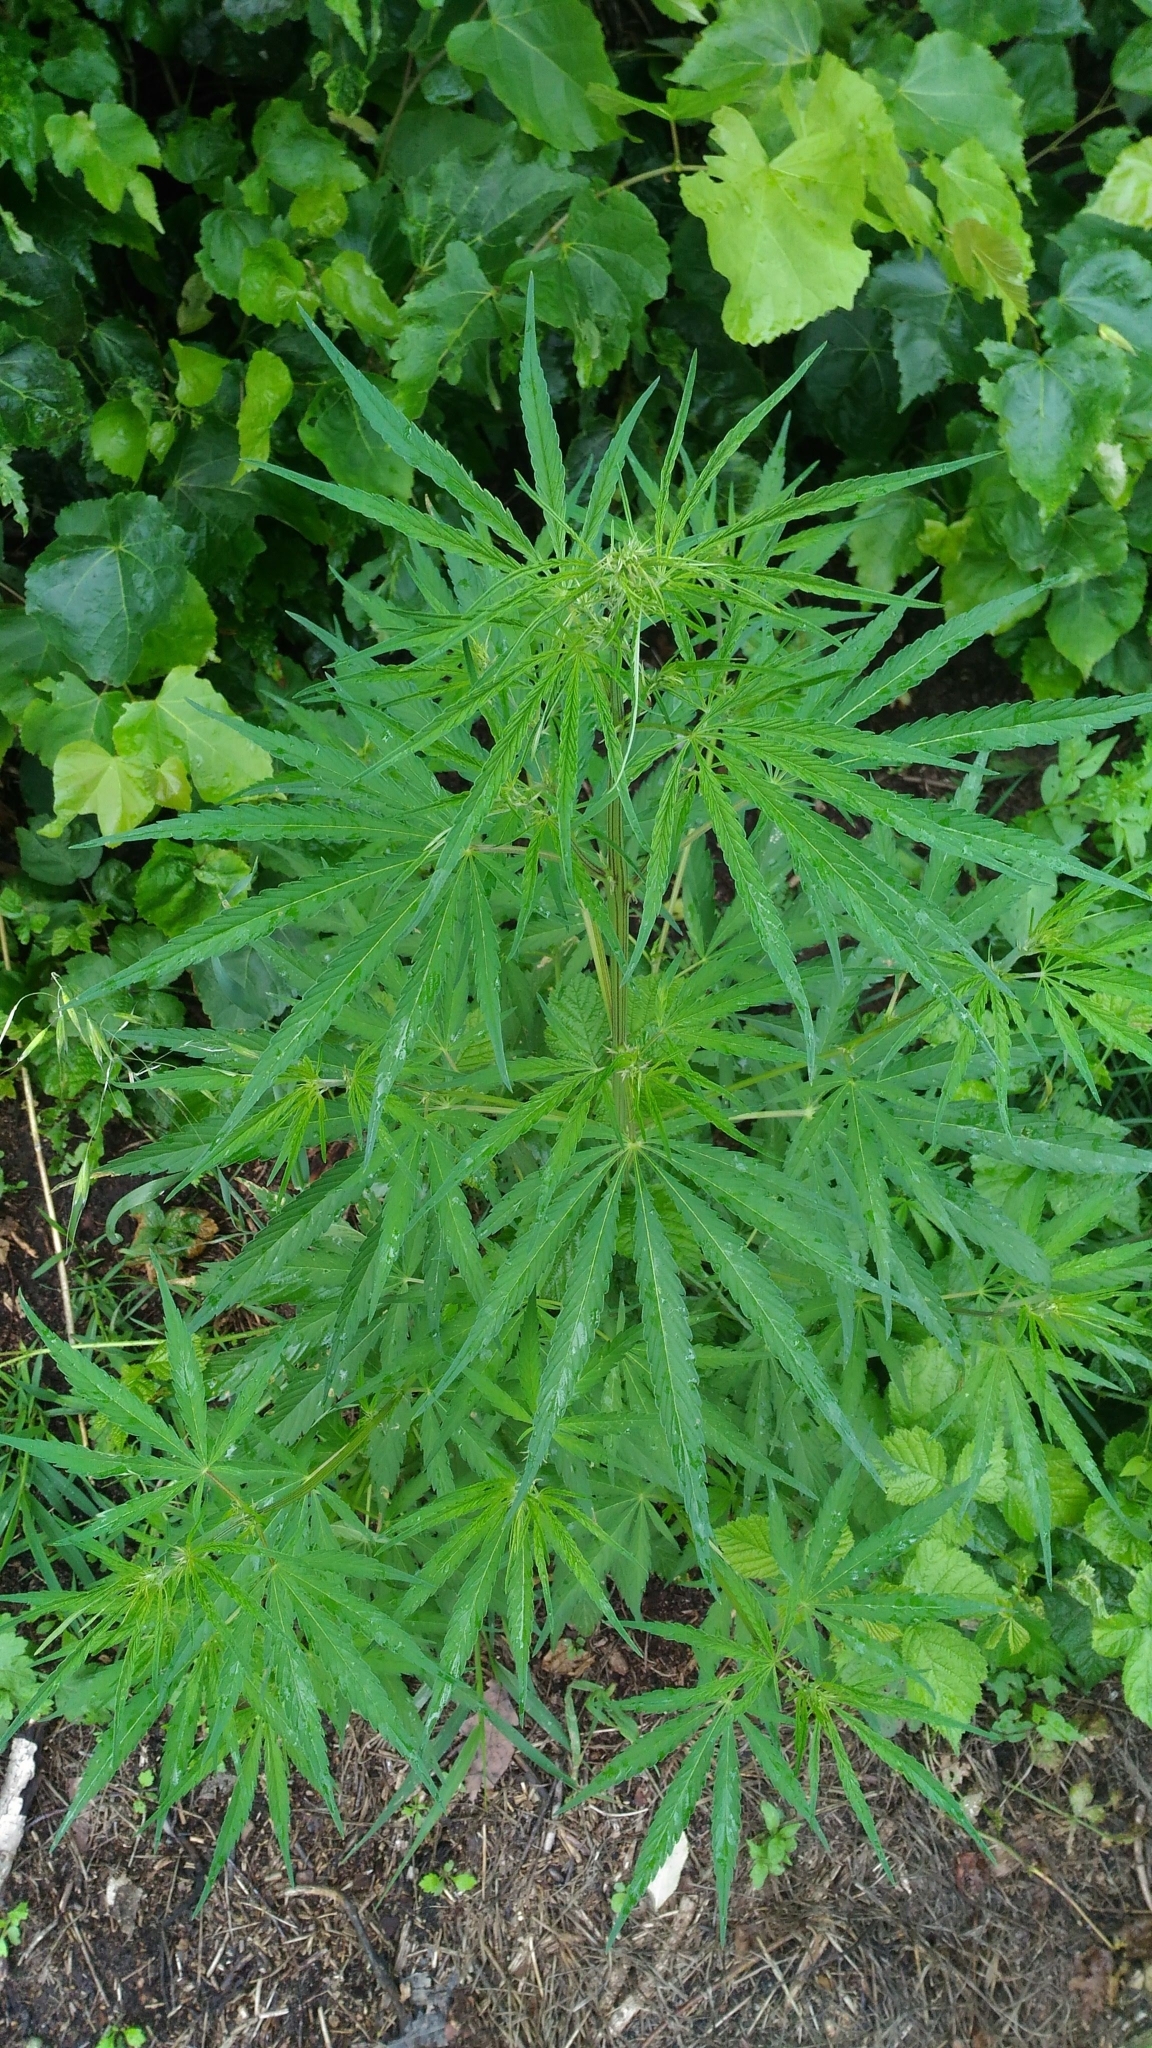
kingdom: Plantae
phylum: Tracheophyta
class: Magnoliopsida
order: Rosales
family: Cannabaceae
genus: Cannabis
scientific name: Cannabis sativa
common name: Hemp
